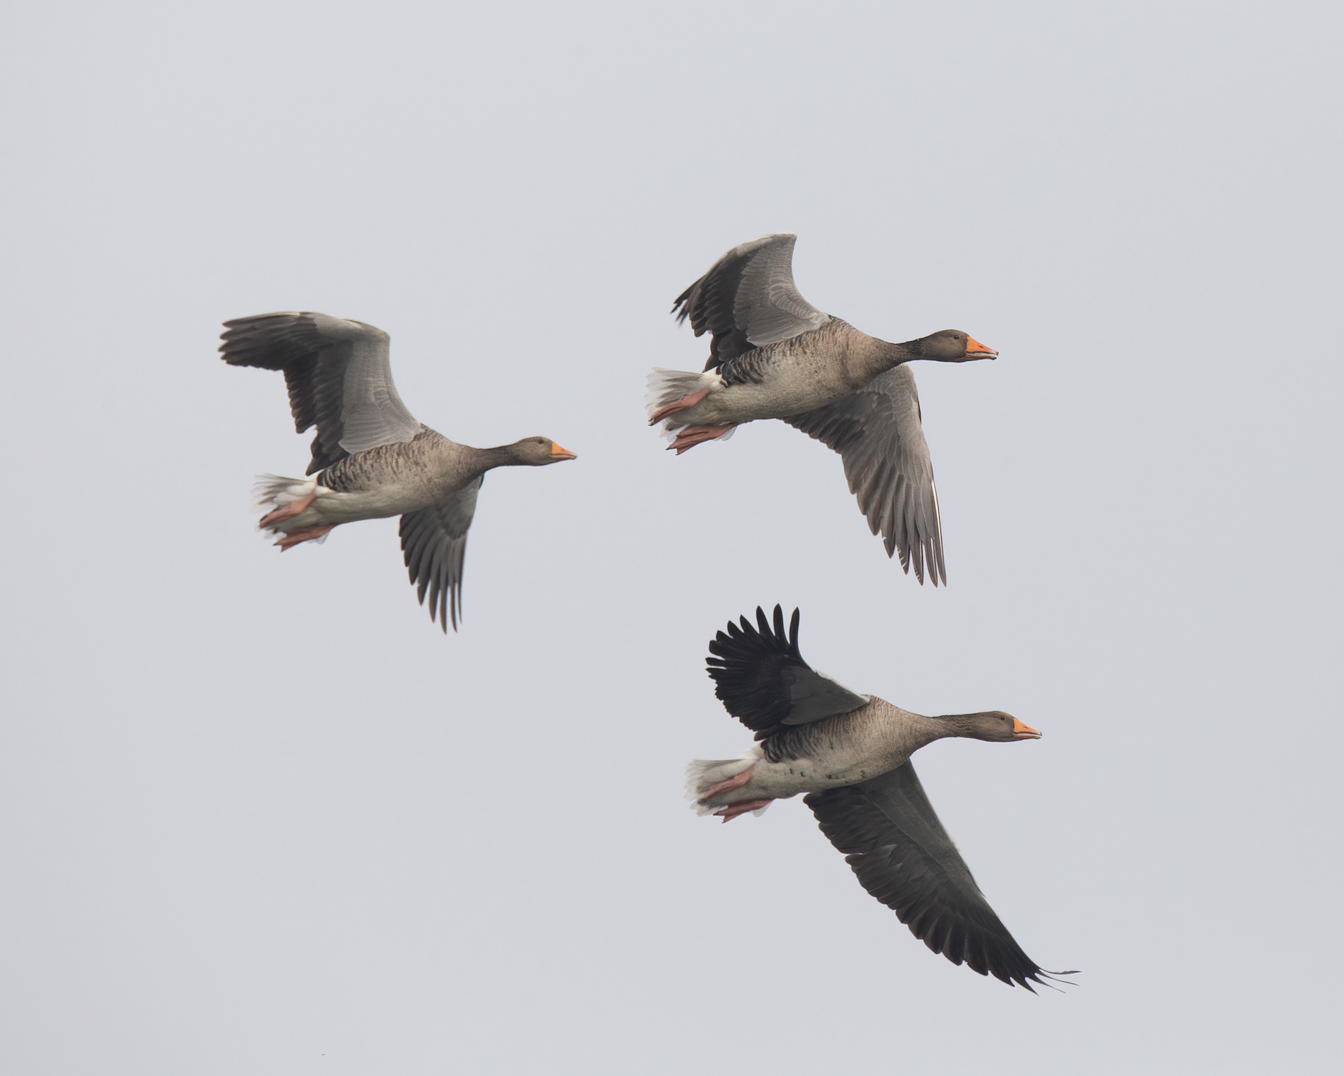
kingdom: Animalia
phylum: Chordata
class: Aves
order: Anseriformes
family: Anatidae
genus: Anser
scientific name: Anser anser
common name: Greylag goose
